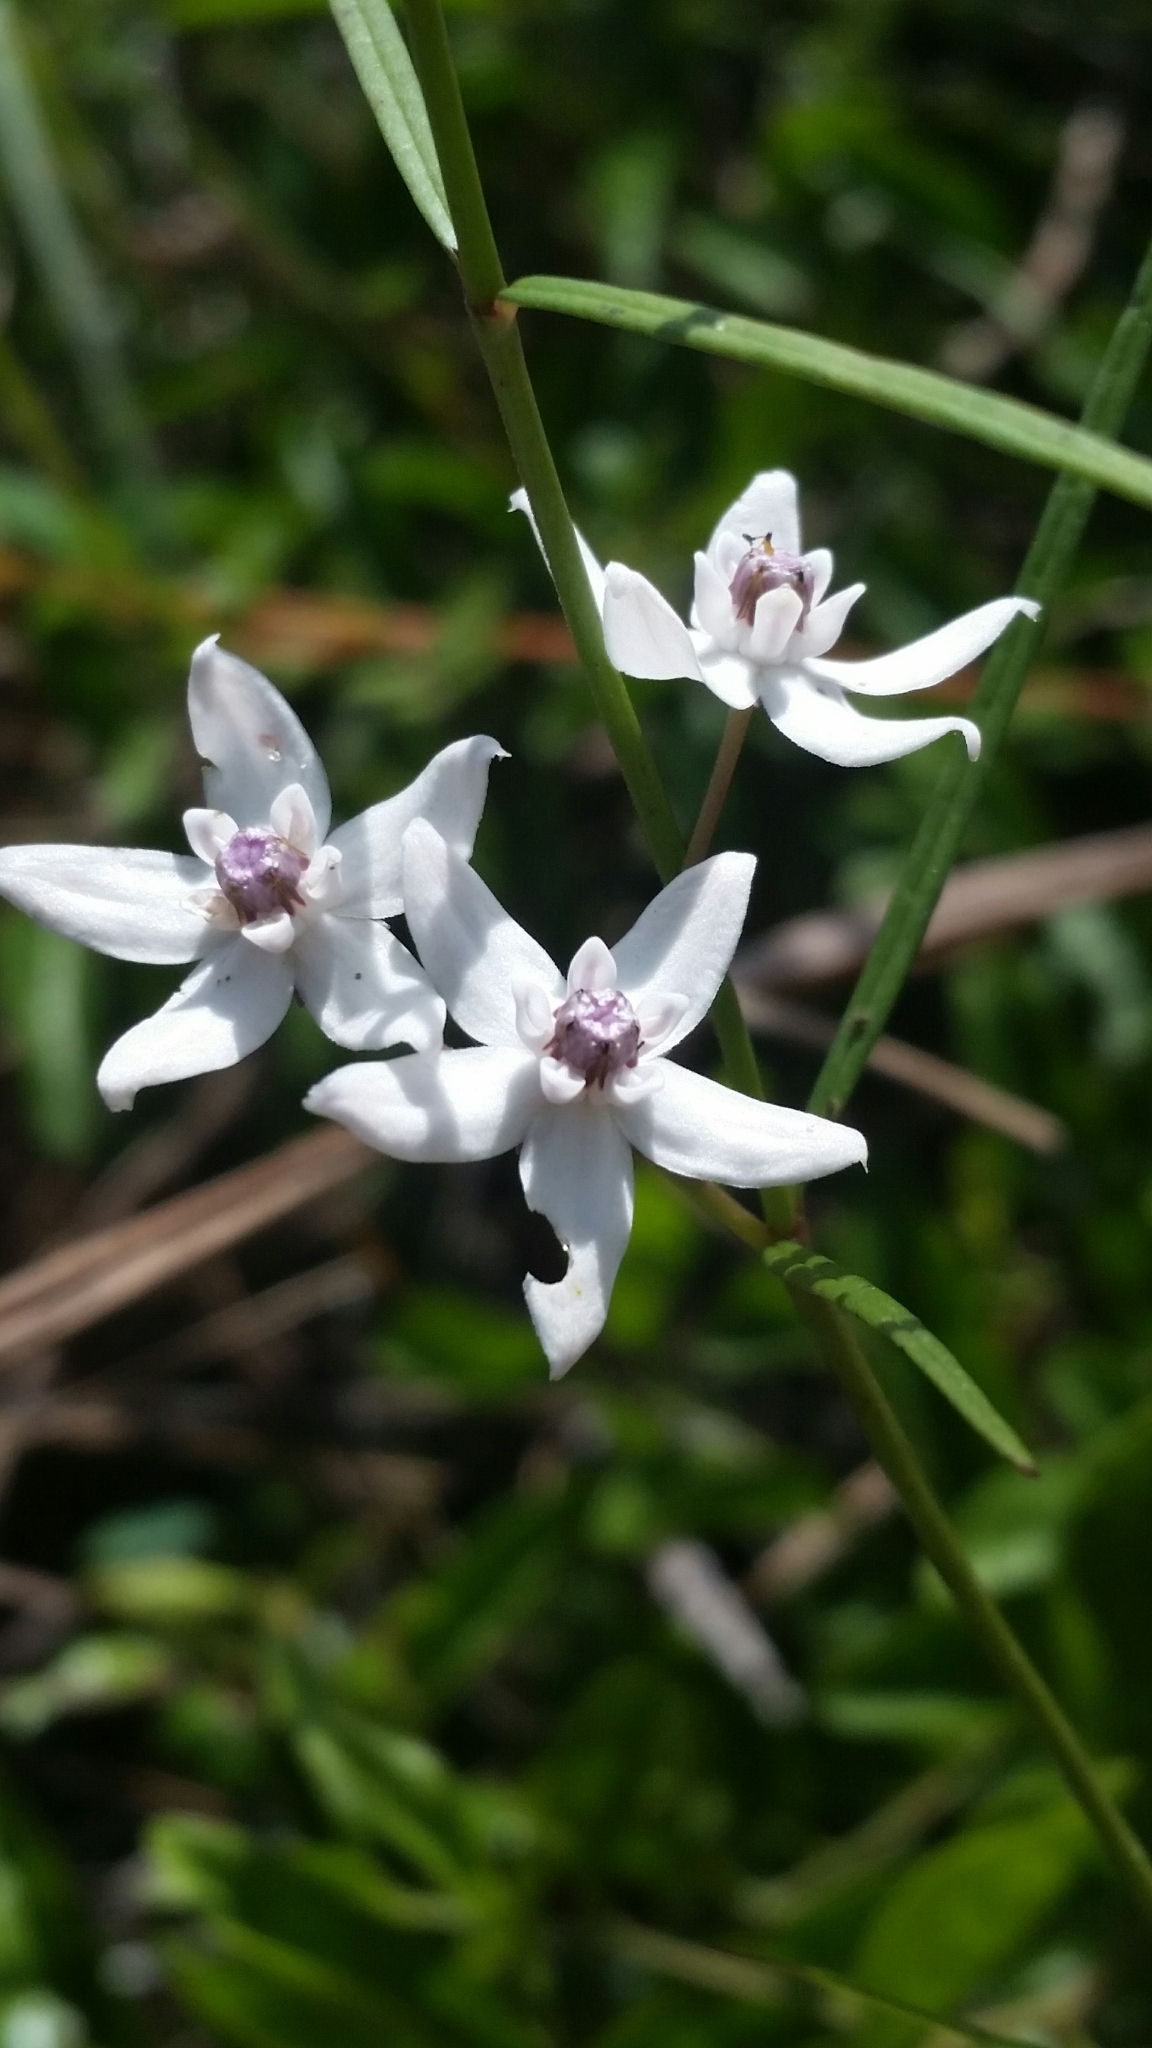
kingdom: Plantae
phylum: Tracheophyta
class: Magnoliopsida
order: Gentianales
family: Apocynaceae
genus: Asclepias
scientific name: Asclepias feayi
